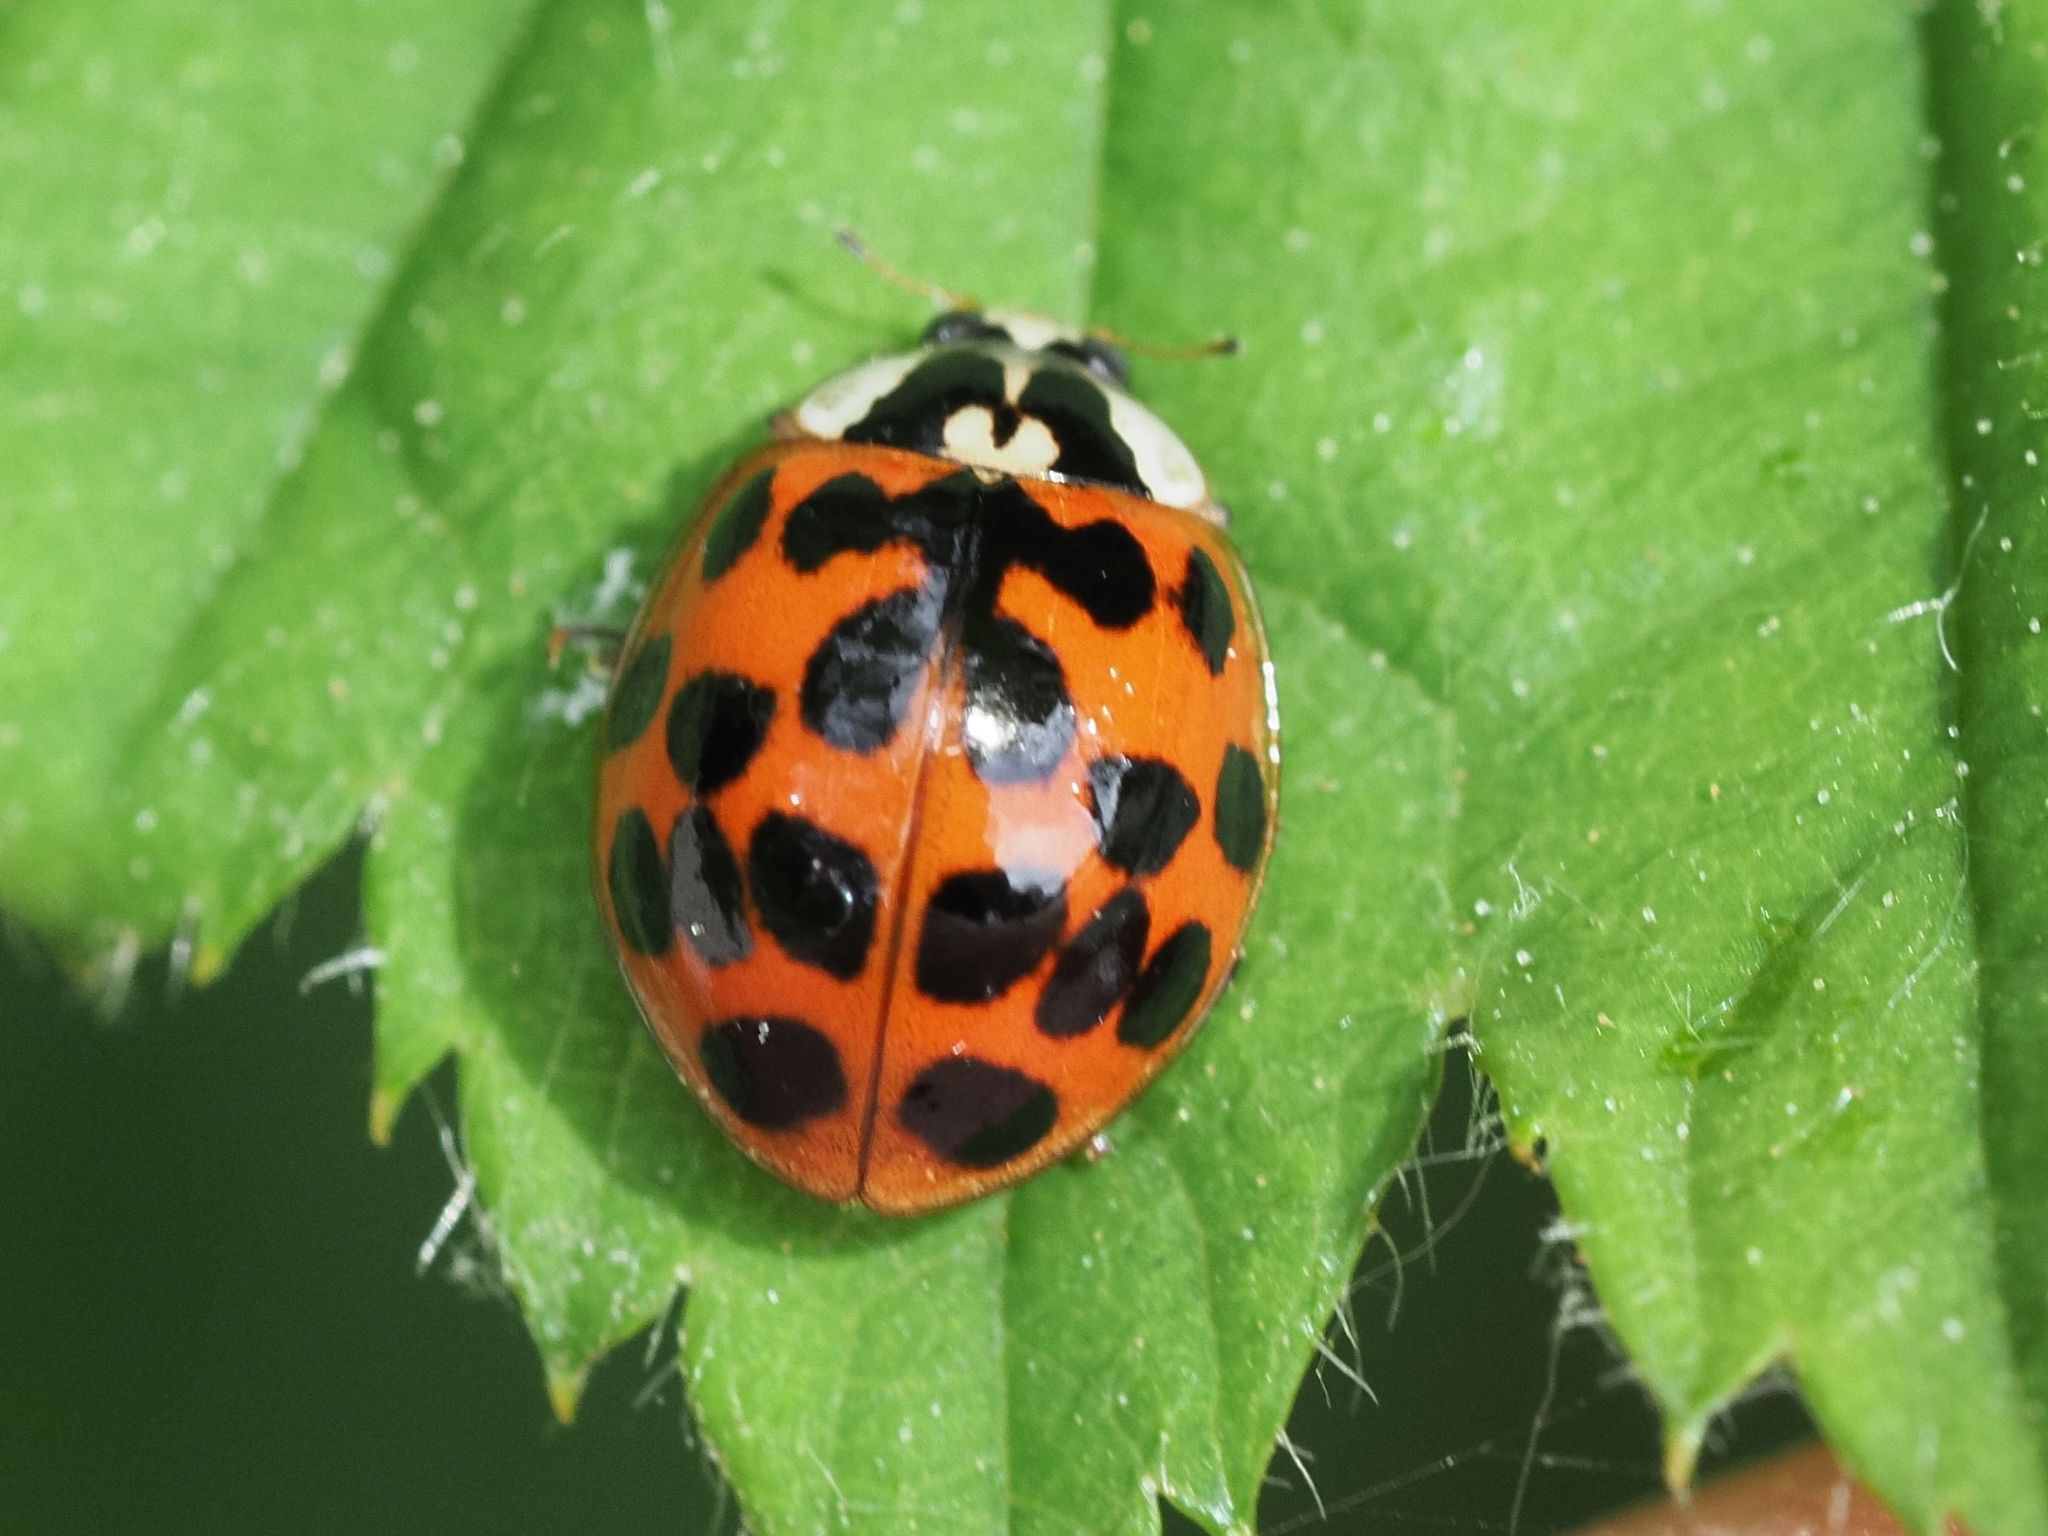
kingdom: Animalia
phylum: Arthropoda
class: Insecta
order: Coleoptera
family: Coccinellidae
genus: Harmonia
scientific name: Harmonia axyridis
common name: Harlequin ladybird
